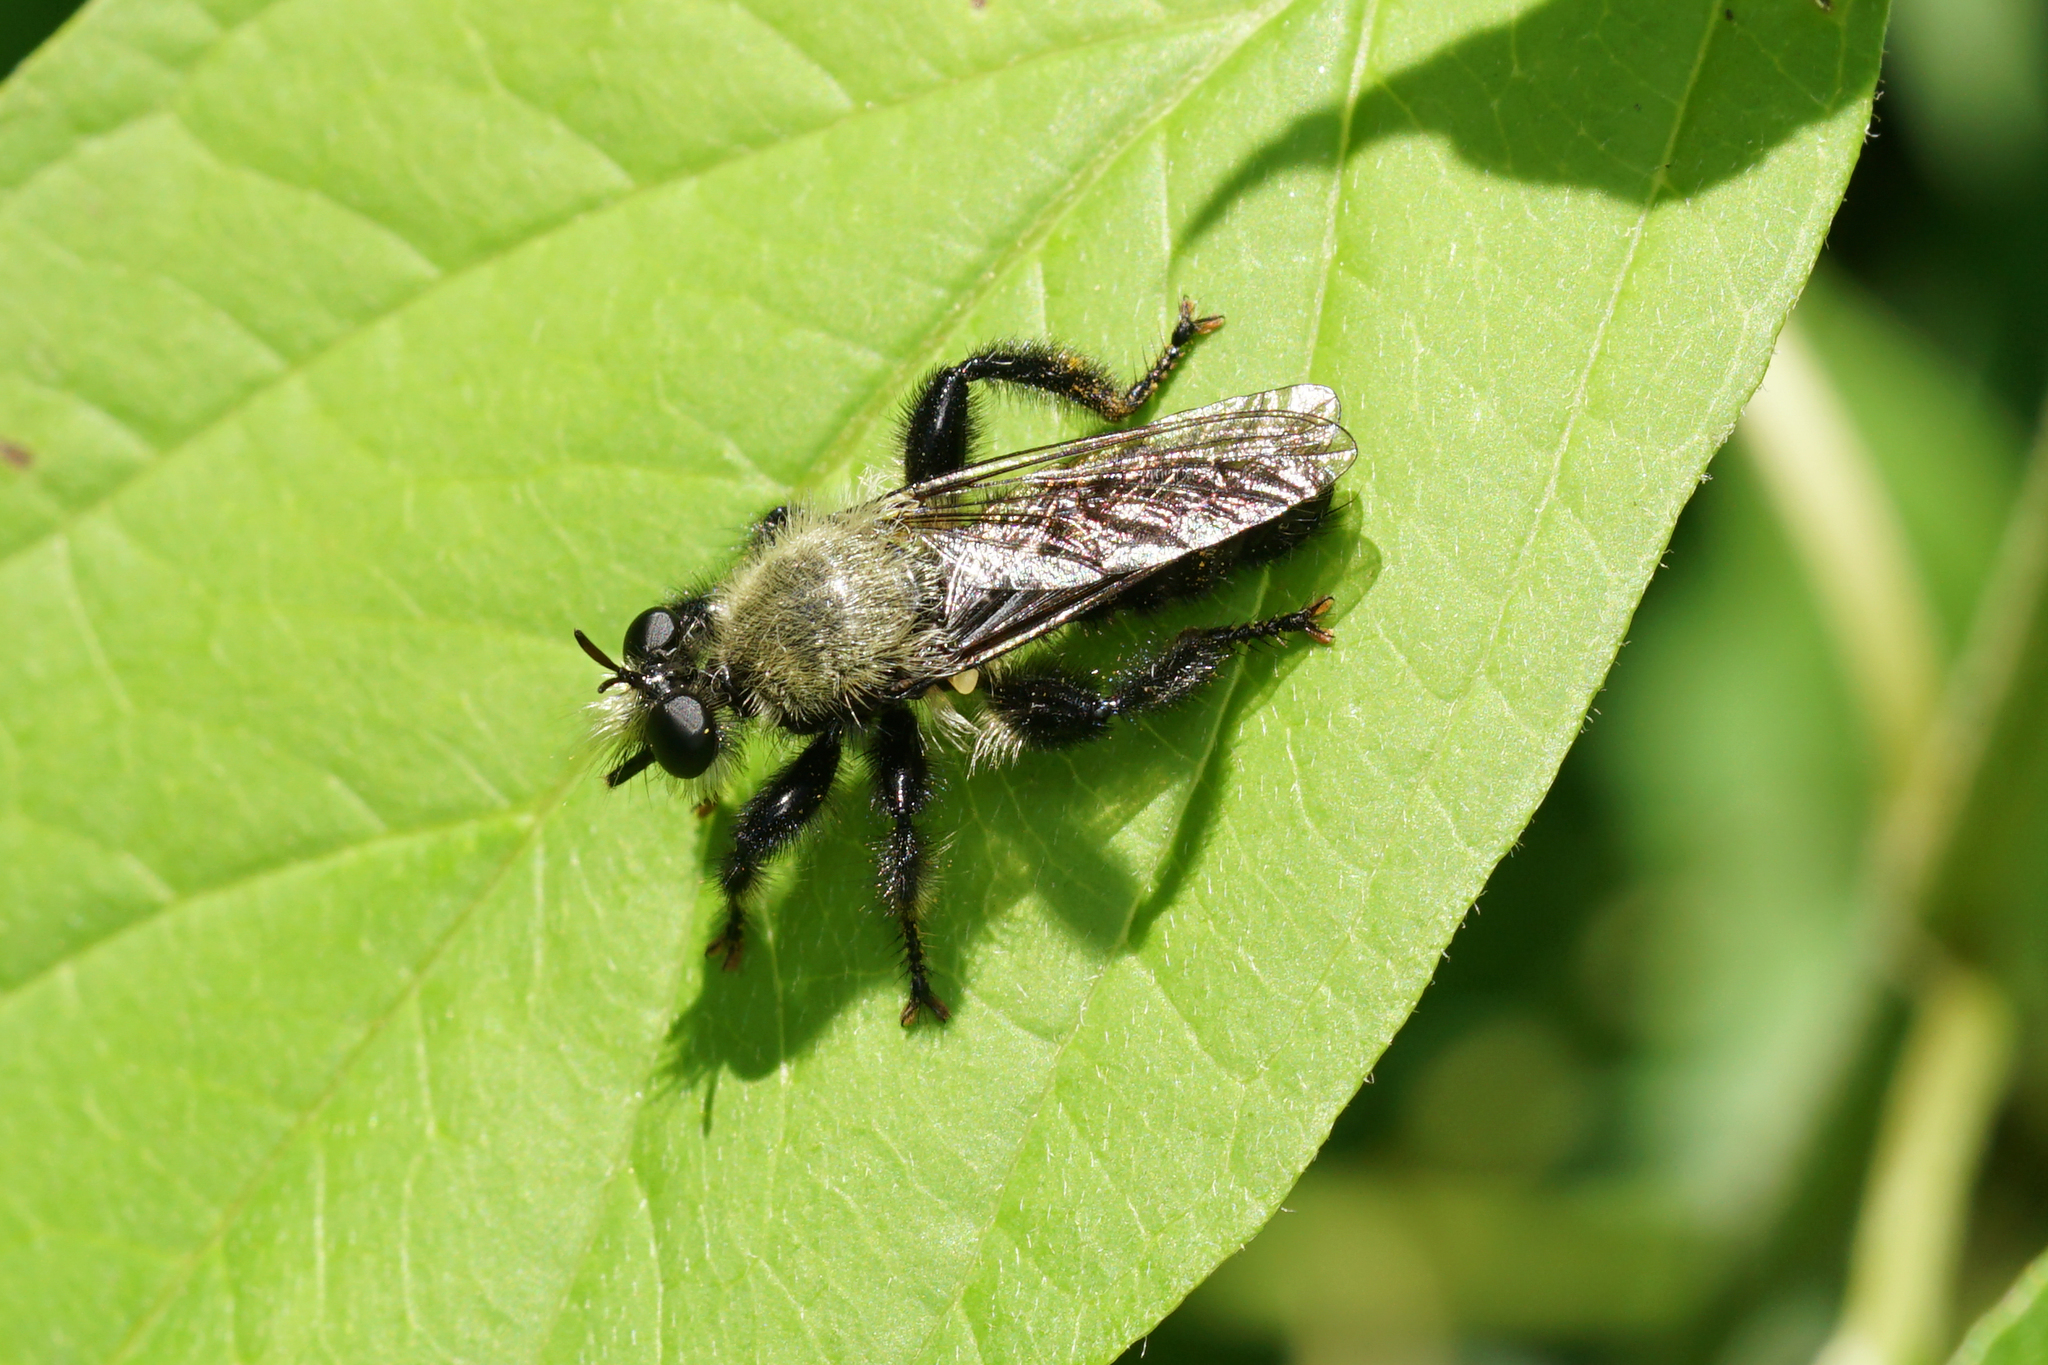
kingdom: Animalia
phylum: Arthropoda
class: Insecta
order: Diptera
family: Asilidae
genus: Laphria
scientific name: Laphria flavicollis
